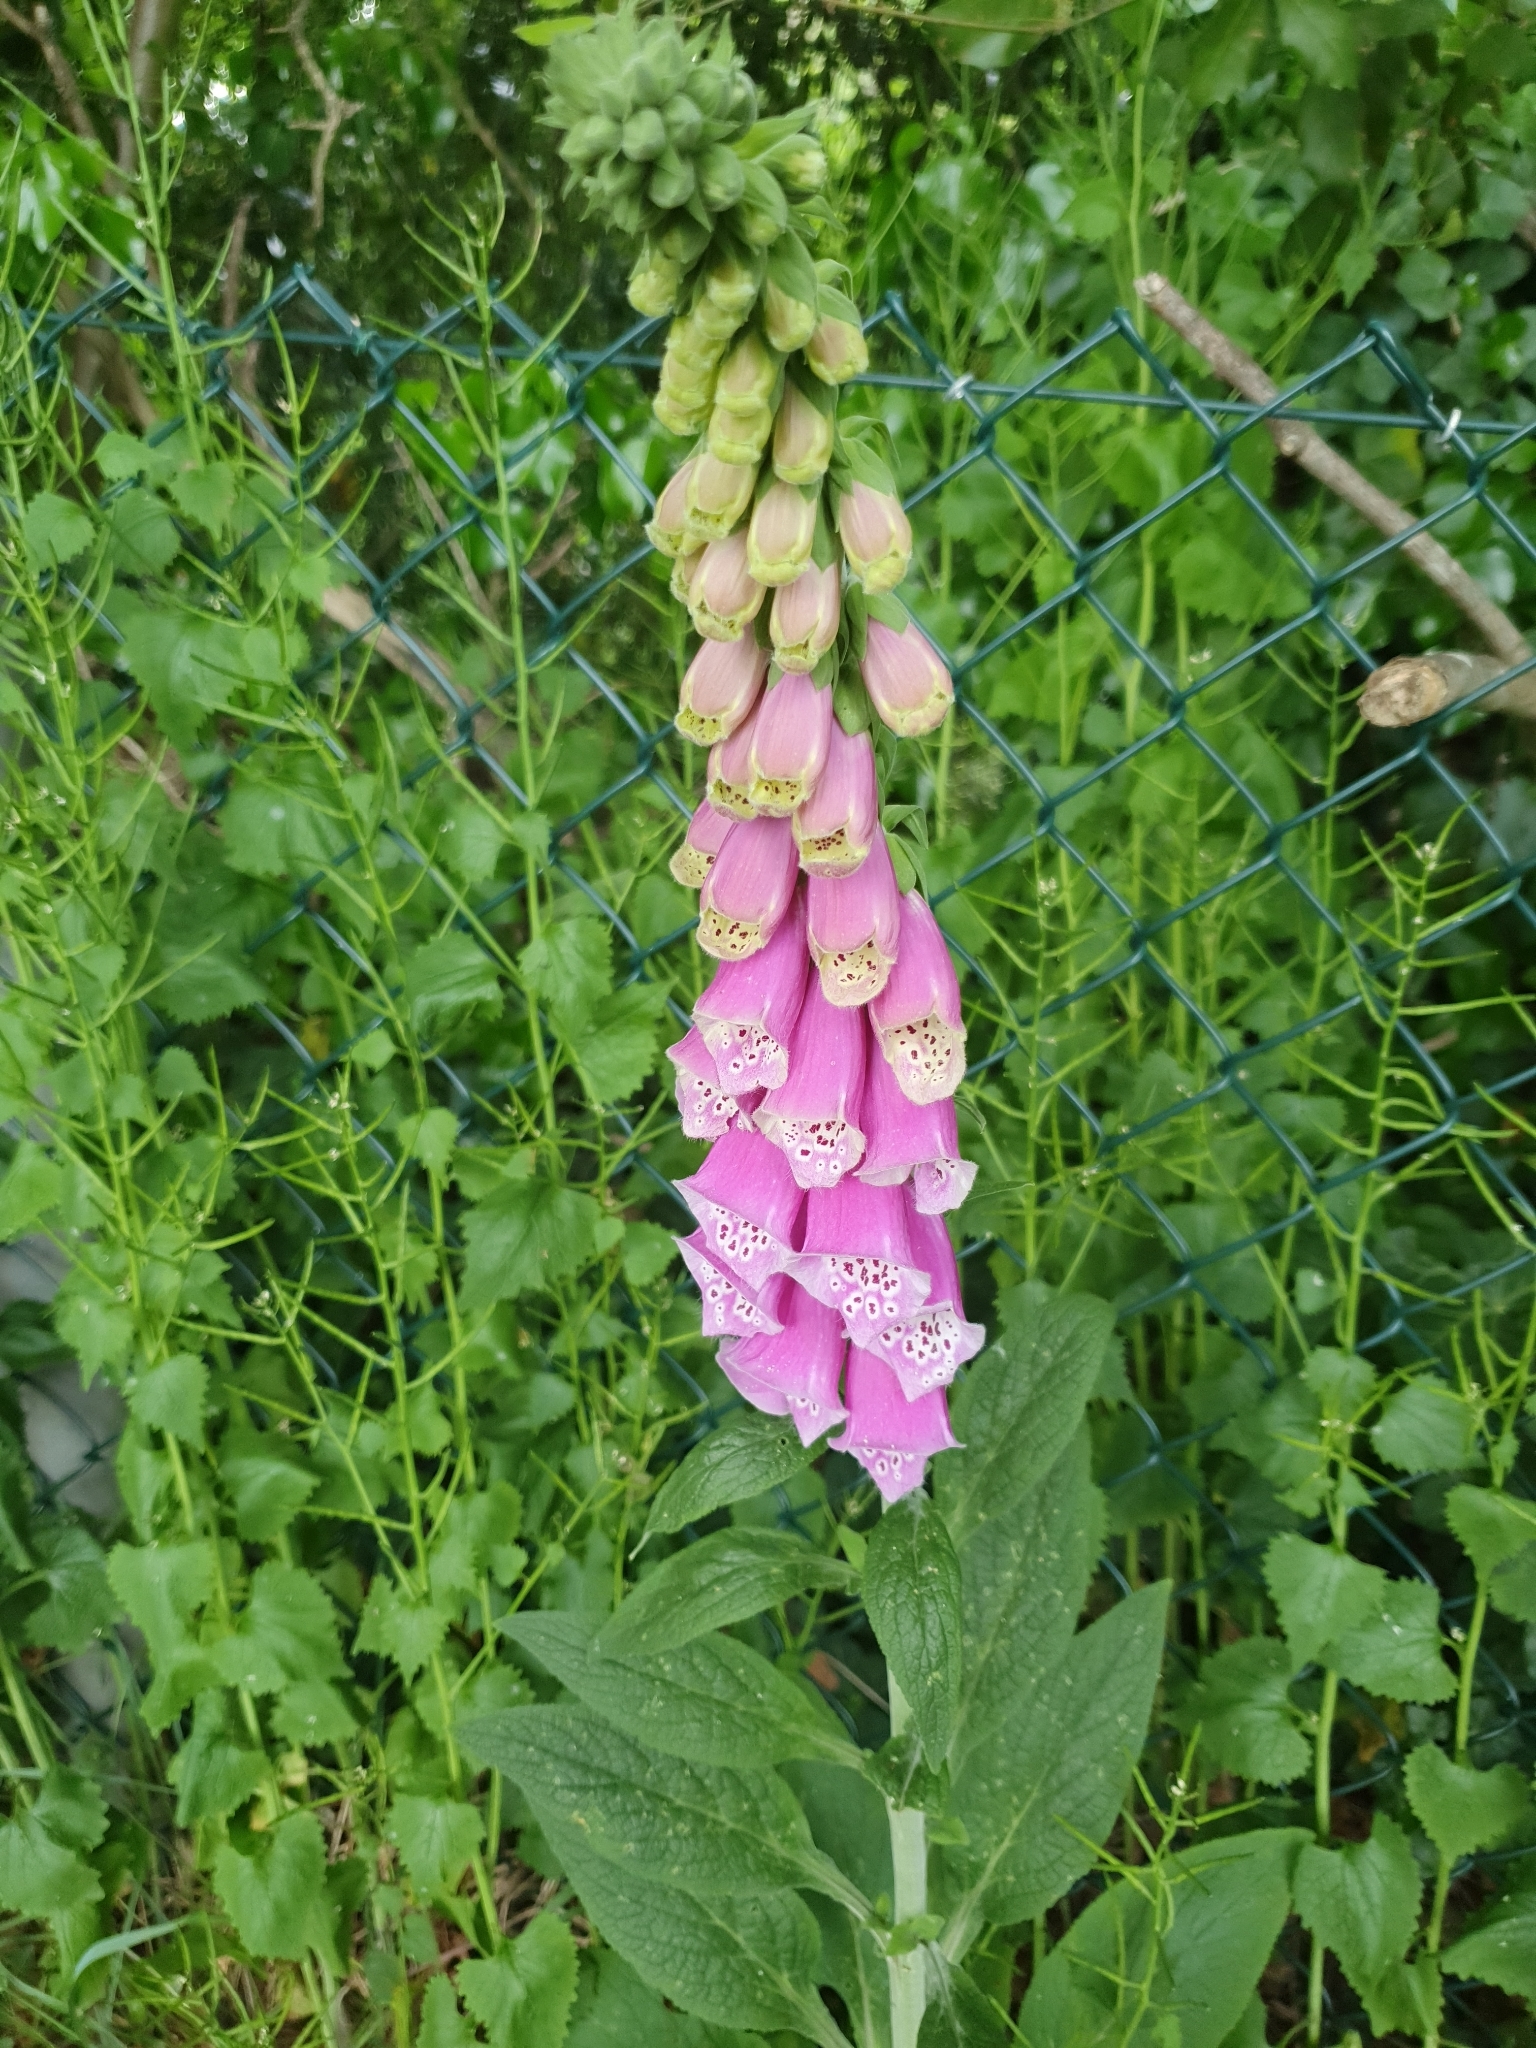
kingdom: Plantae
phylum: Tracheophyta
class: Magnoliopsida
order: Lamiales
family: Plantaginaceae
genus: Digitalis
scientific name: Digitalis purpurea
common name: Foxglove
